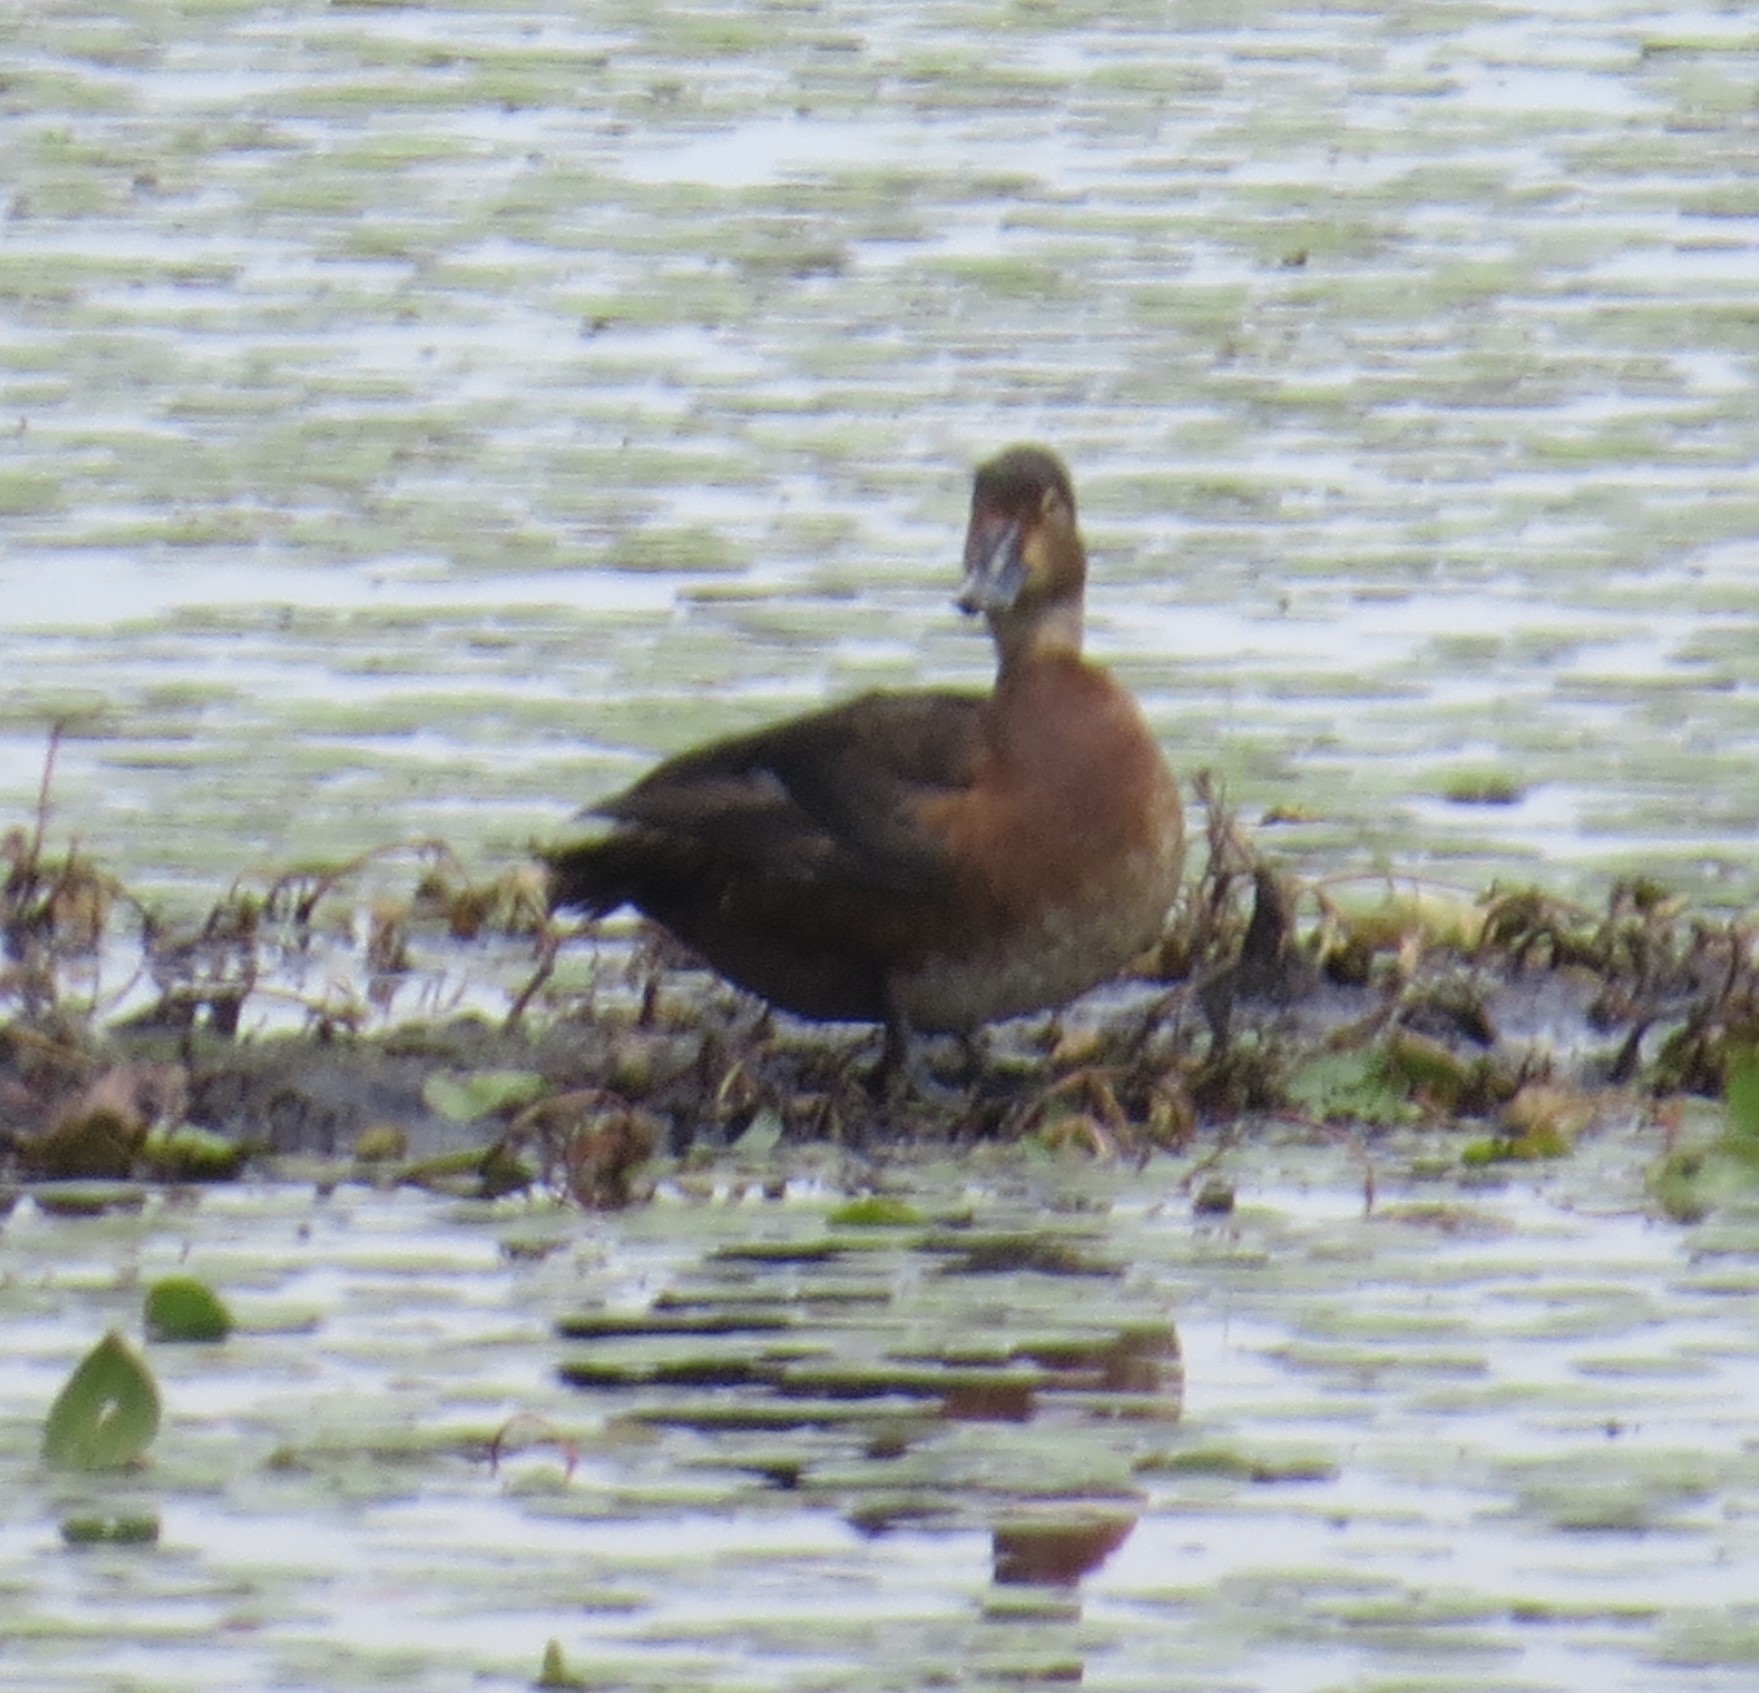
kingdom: Animalia
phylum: Chordata
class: Aves
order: Anseriformes
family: Anatidae
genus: Aythya
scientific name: Aythya collaris
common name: Ring-necked duck
